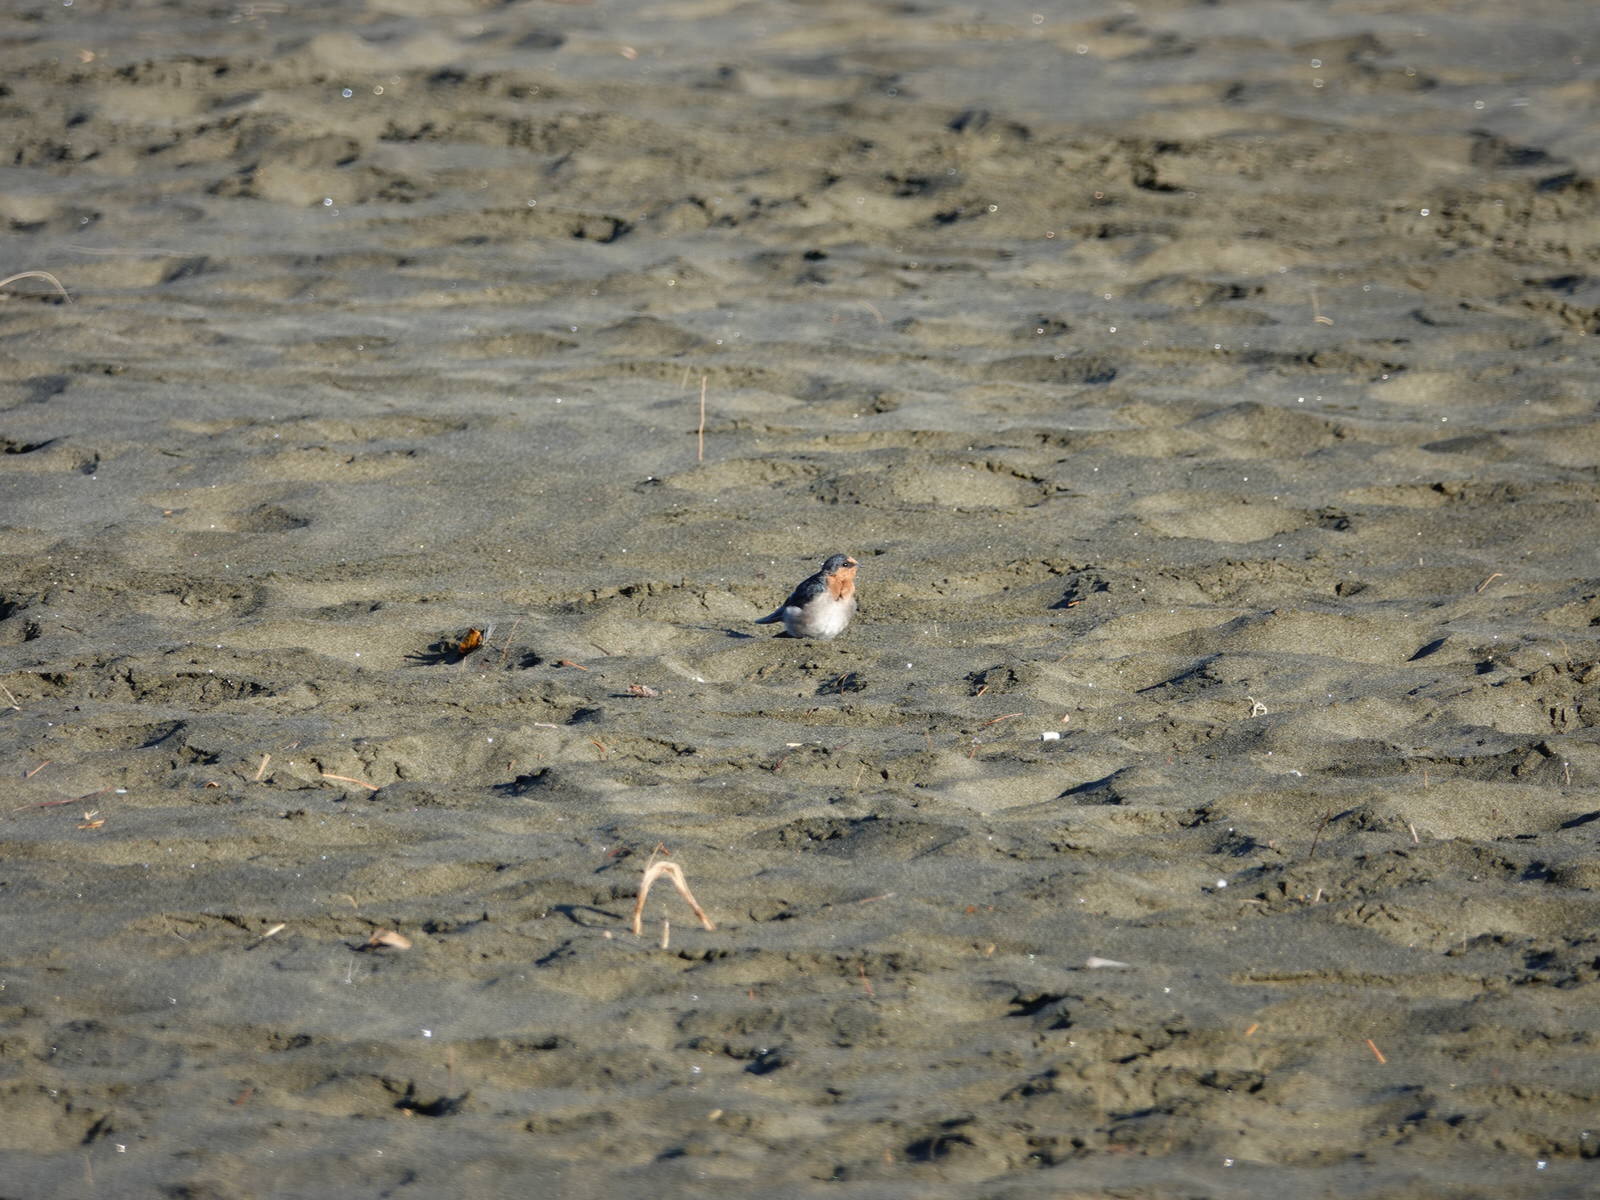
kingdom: Animalia
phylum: Chordata
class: Aves
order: Passeriformes
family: Hirundinidae
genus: Hirundo
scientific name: Hirundo neoxena
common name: Welcome swallow
